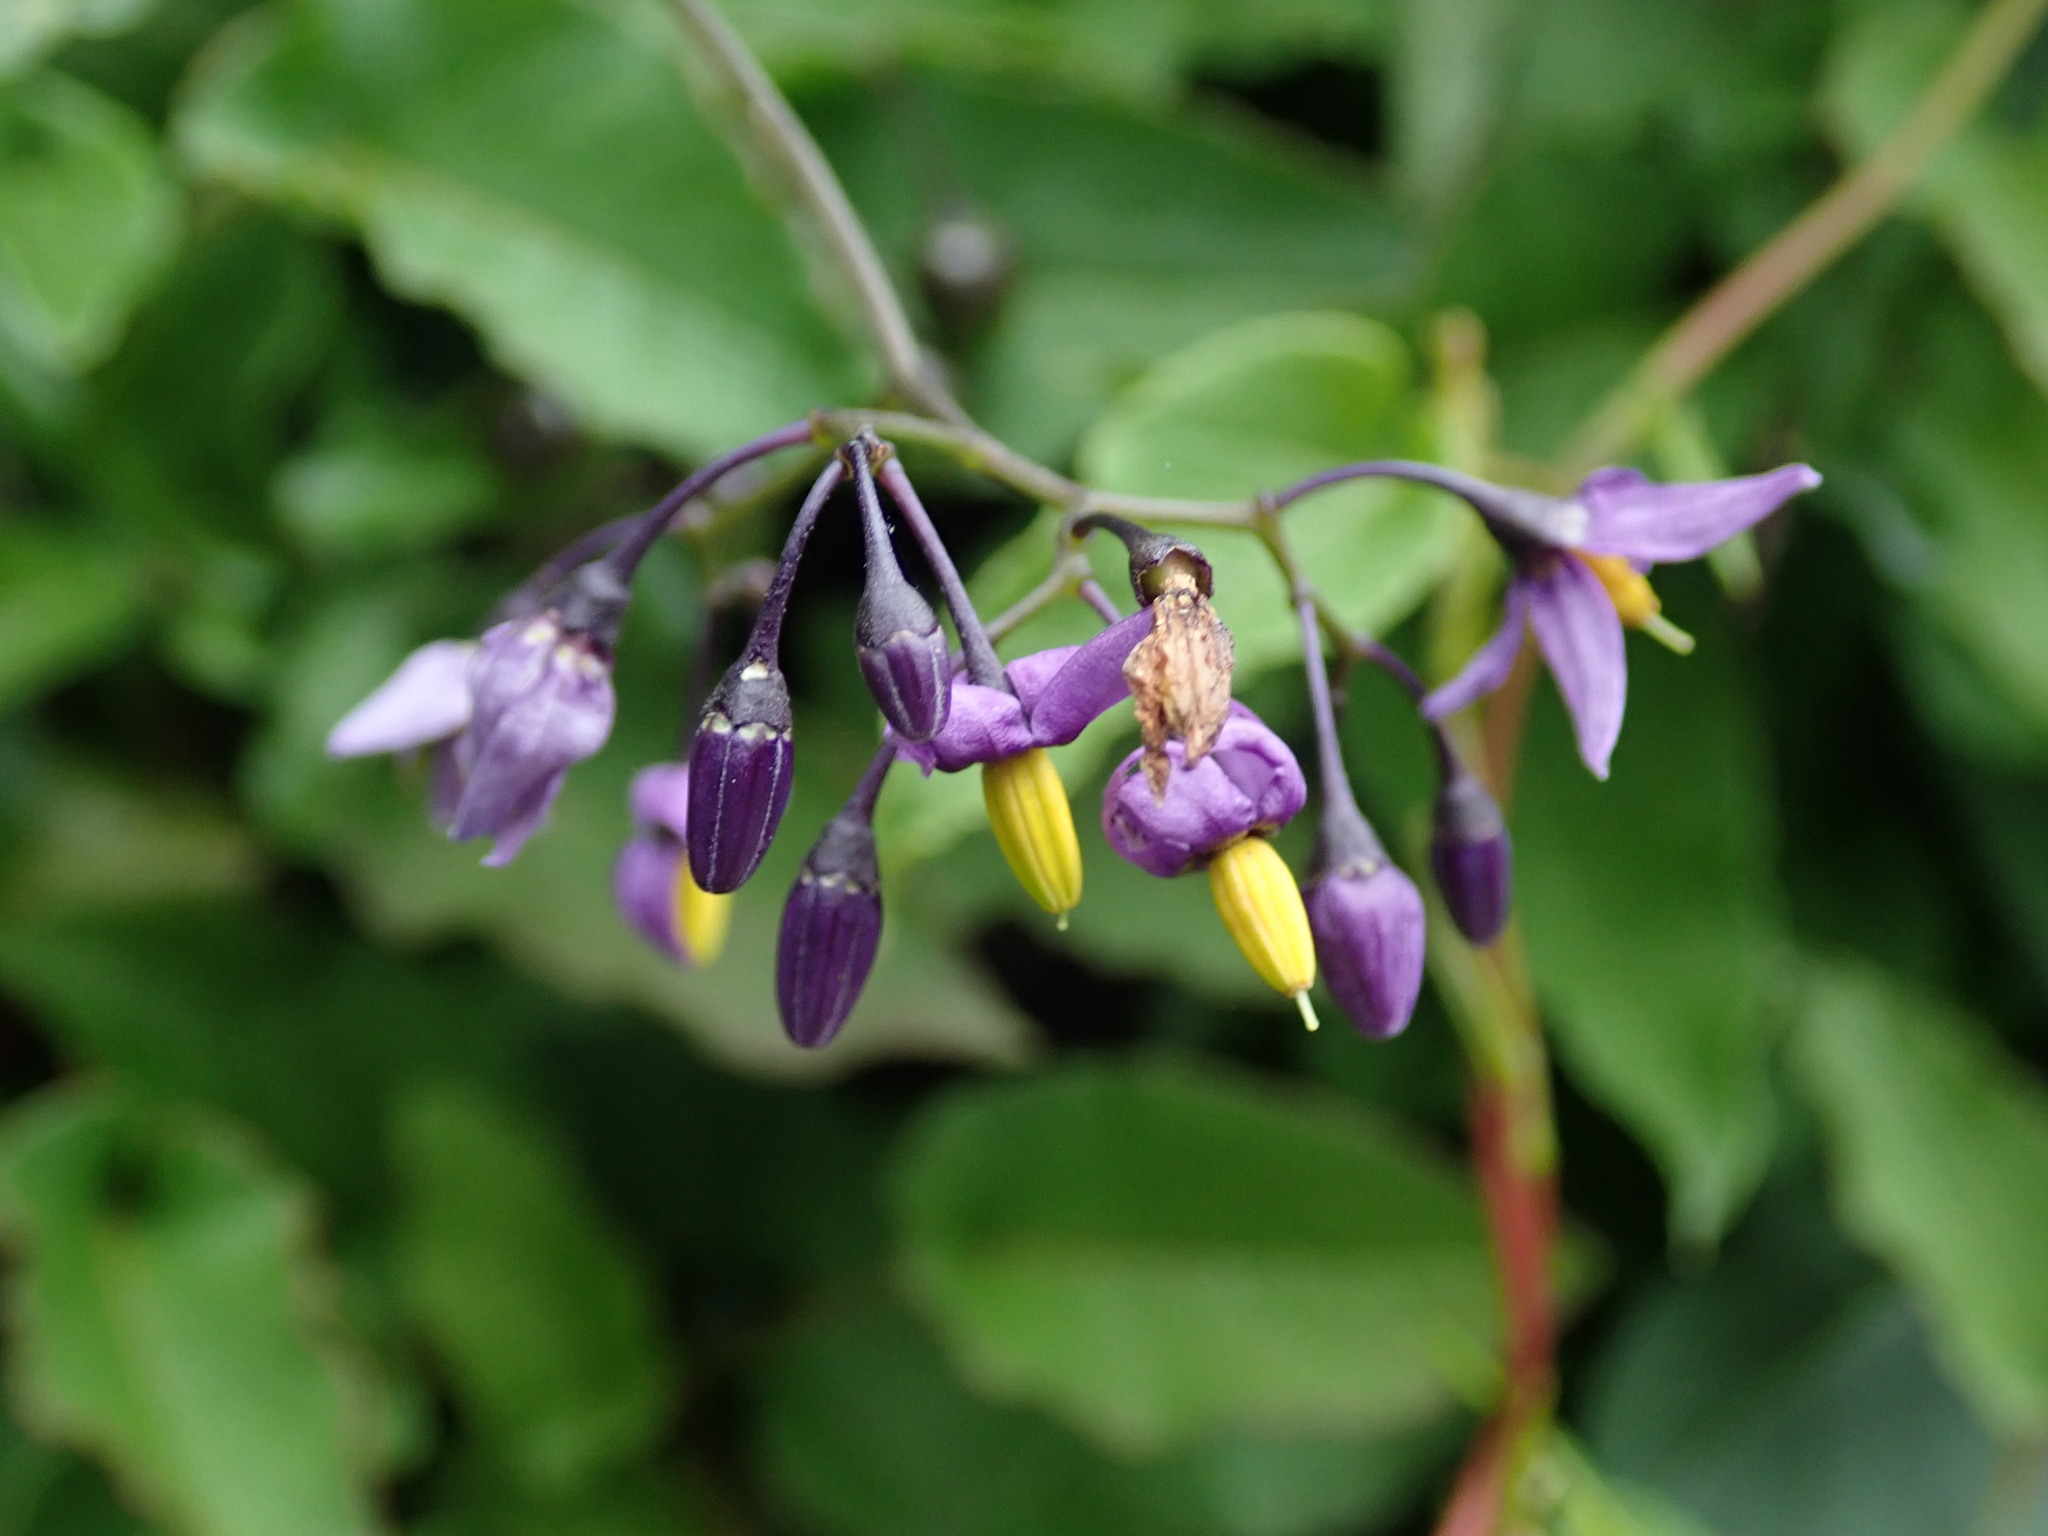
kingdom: Plantae
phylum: Tracheophyta
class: Magnoliopsida
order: Solanales
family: Solanaceae
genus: Solanum
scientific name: Solanum dulcamara
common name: Climbing nightshade
